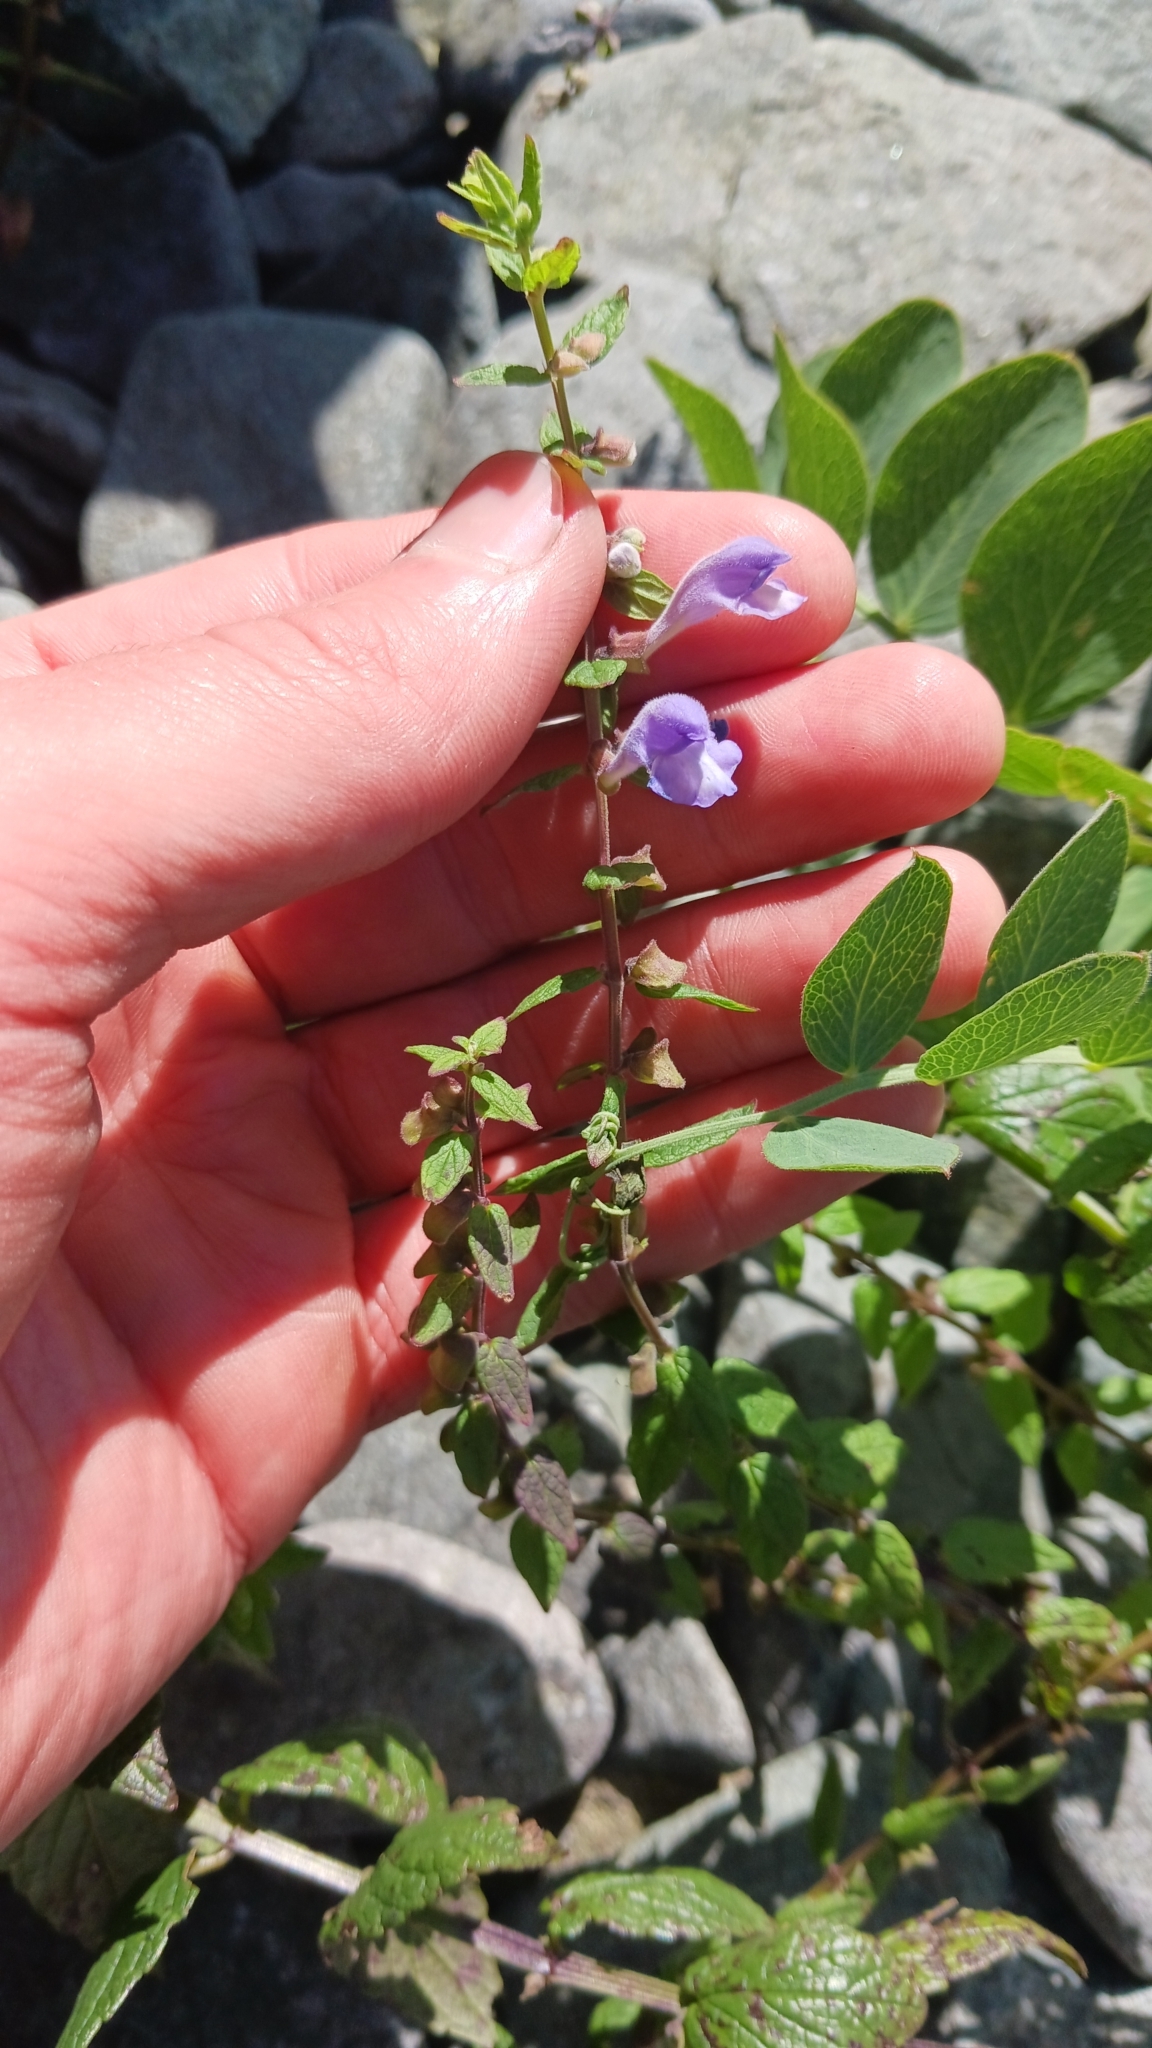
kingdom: Plantae
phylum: Tracheophyta
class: Magnoliopsida
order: Lamiales
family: Lamiaceae
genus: Scutellaria
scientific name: Scutellaria galericulata
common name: Skullcap
